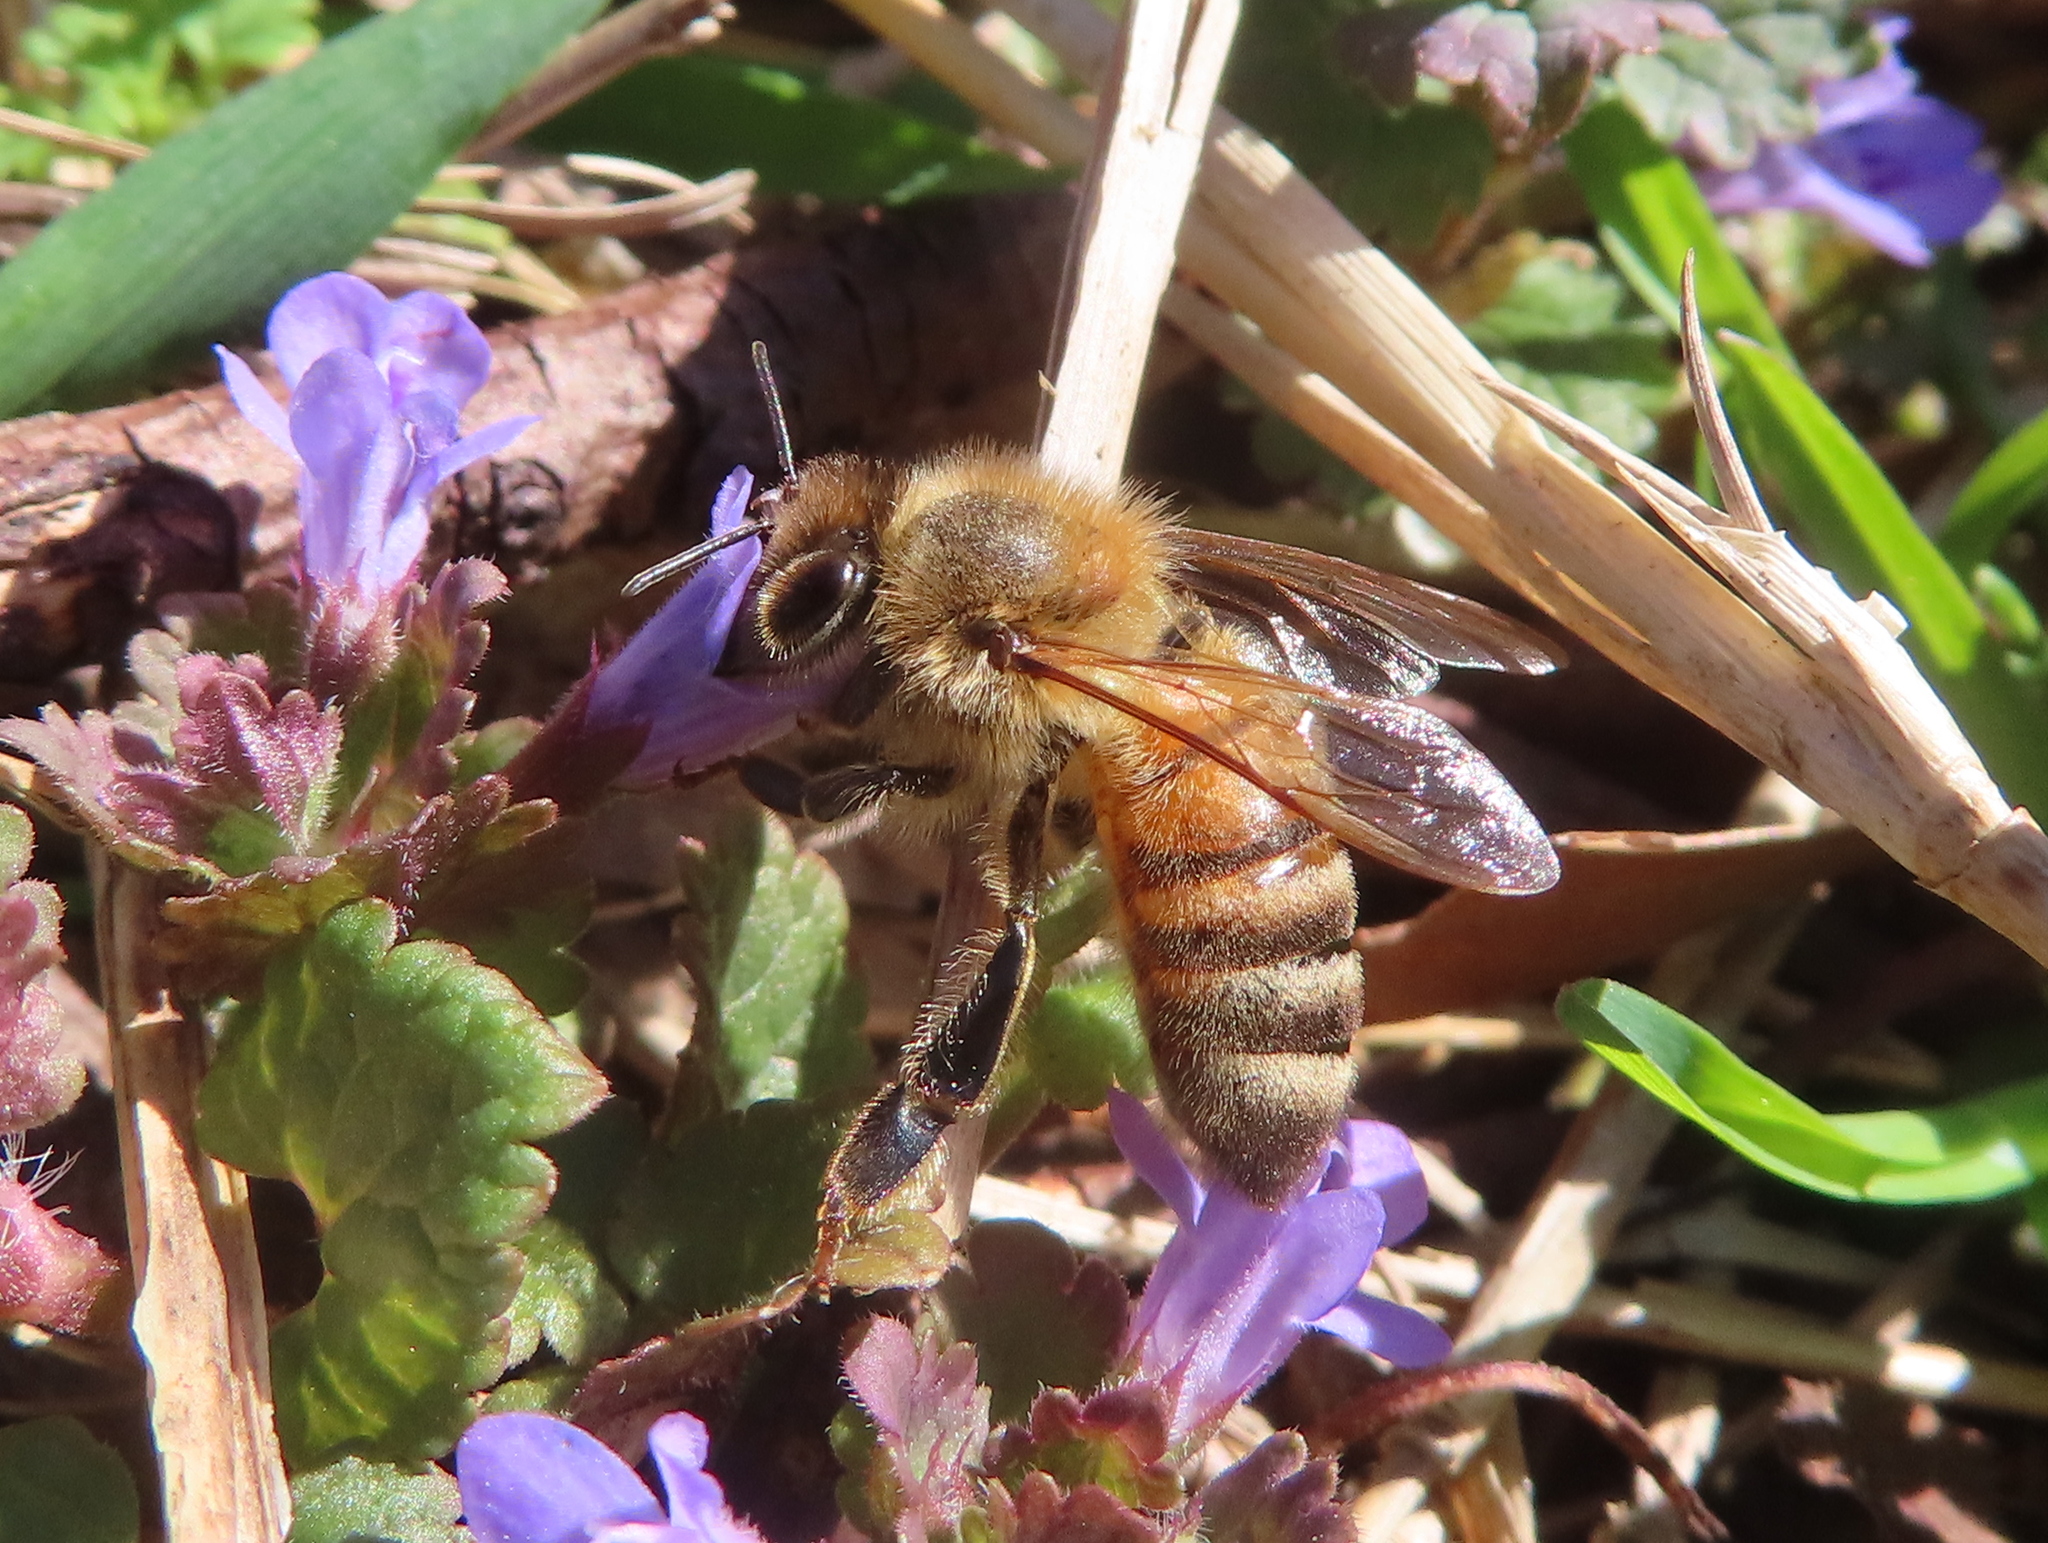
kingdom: Animalia
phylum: Arthropoda
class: Insecta
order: Hymenoptera
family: Apidae
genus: Apis
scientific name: Apis mellifera
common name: Honey bee
